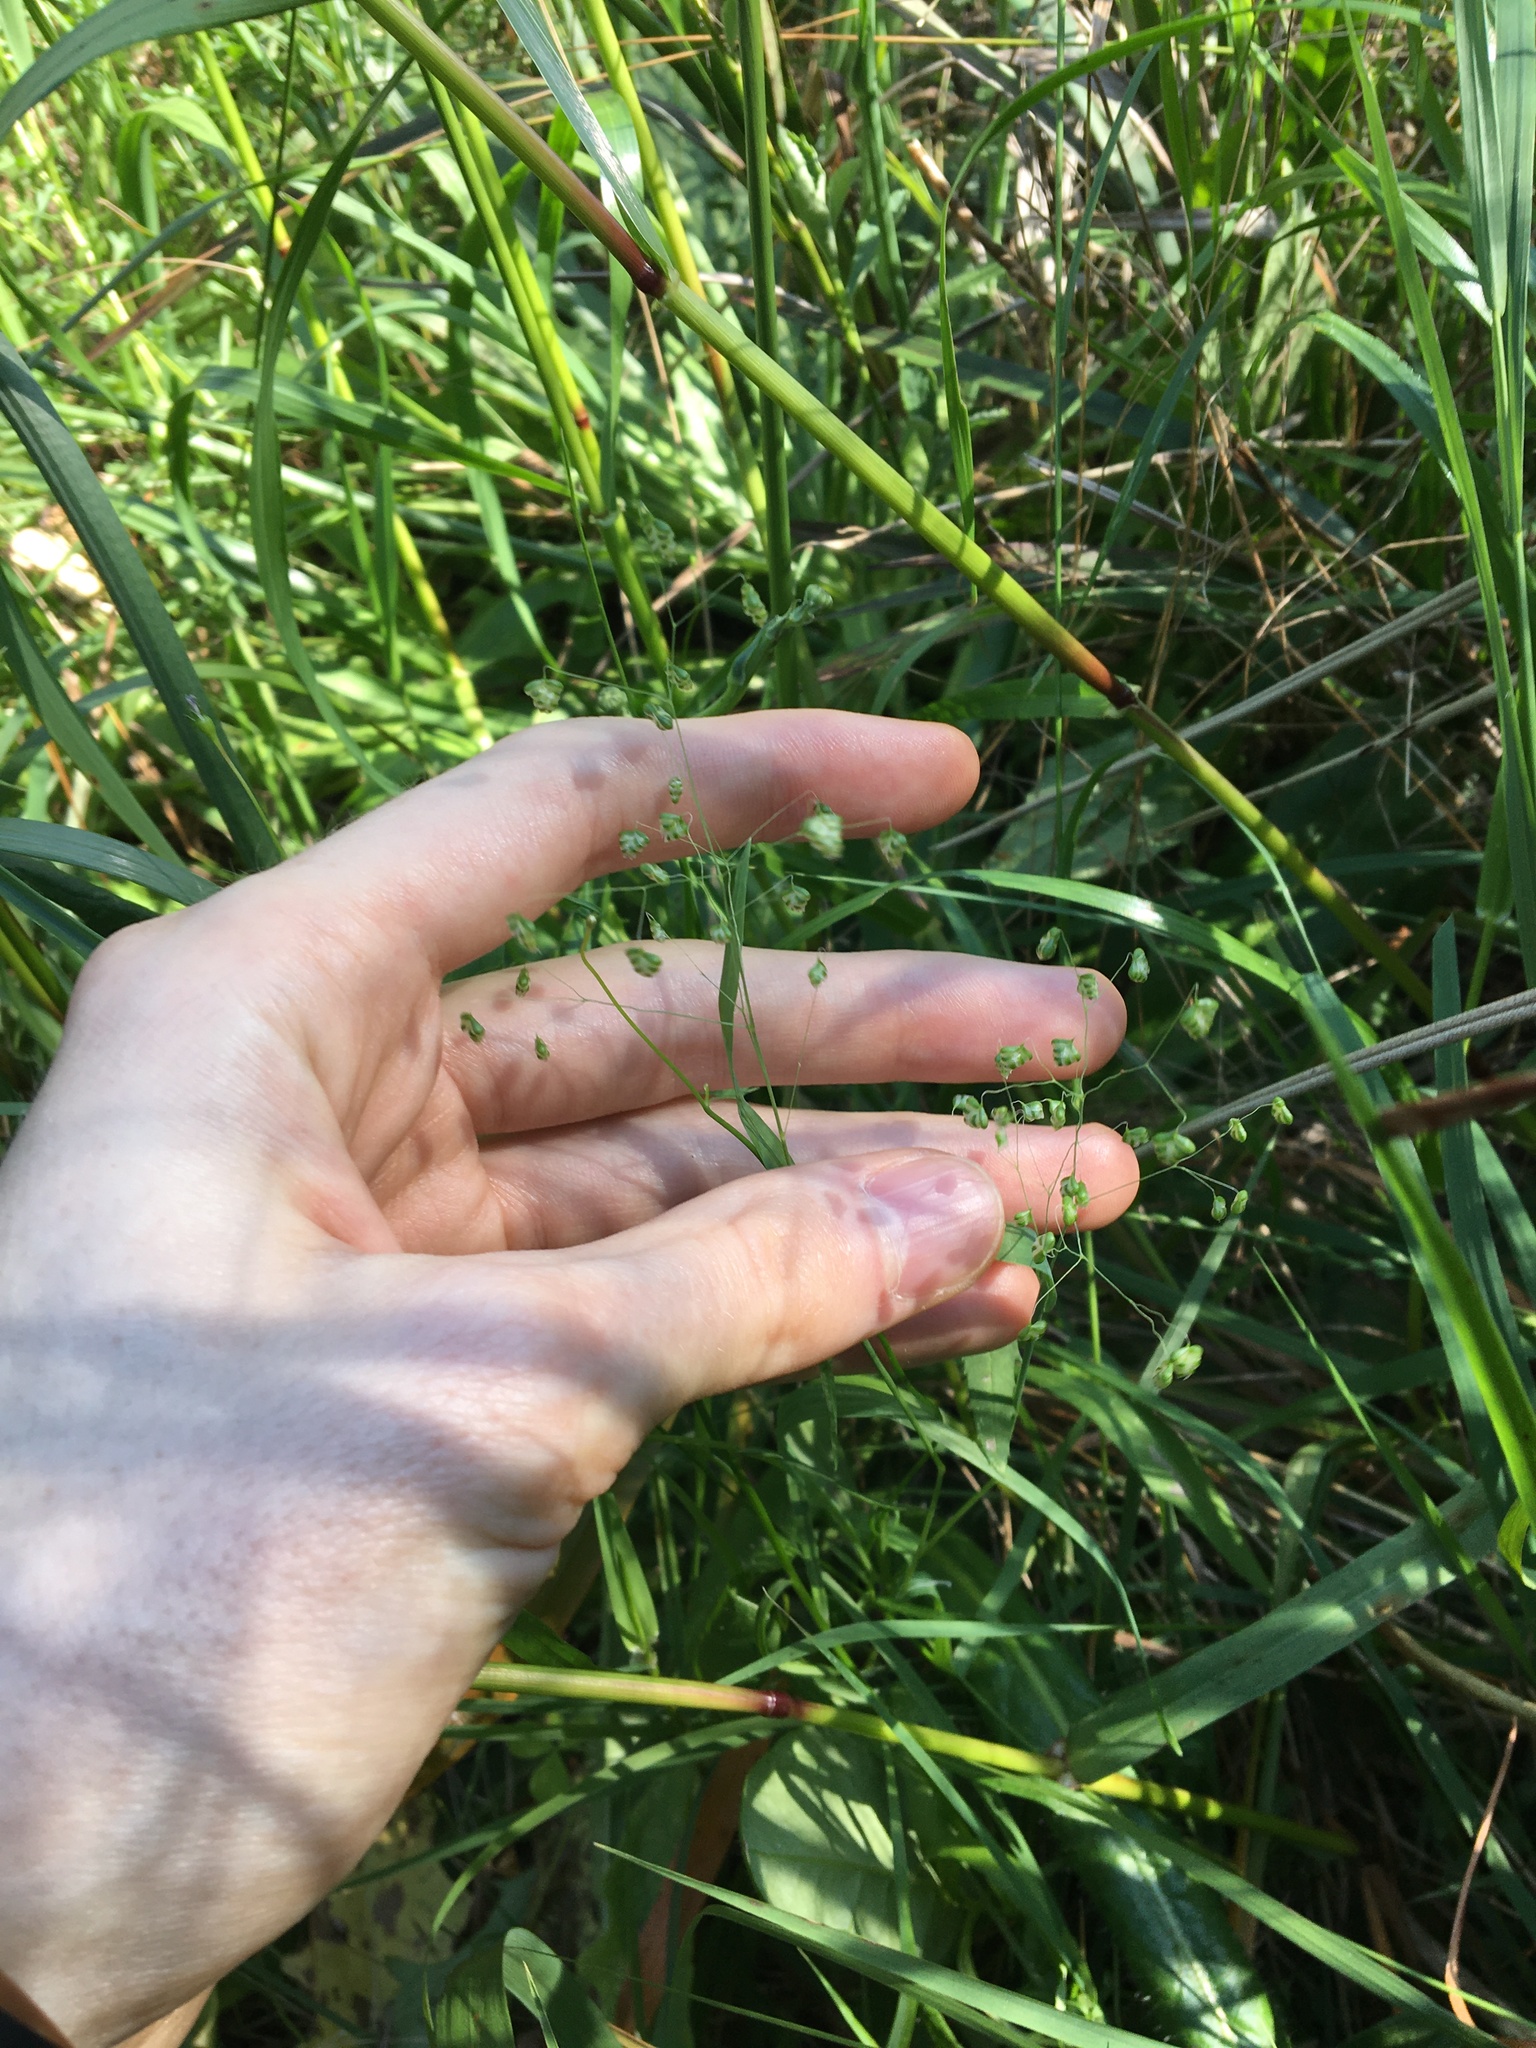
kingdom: Plantae
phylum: Tracheophyta
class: Liliopsida
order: Poales
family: Poaceae
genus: Briza
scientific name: Briza minor
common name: Lesser quaking-grass
